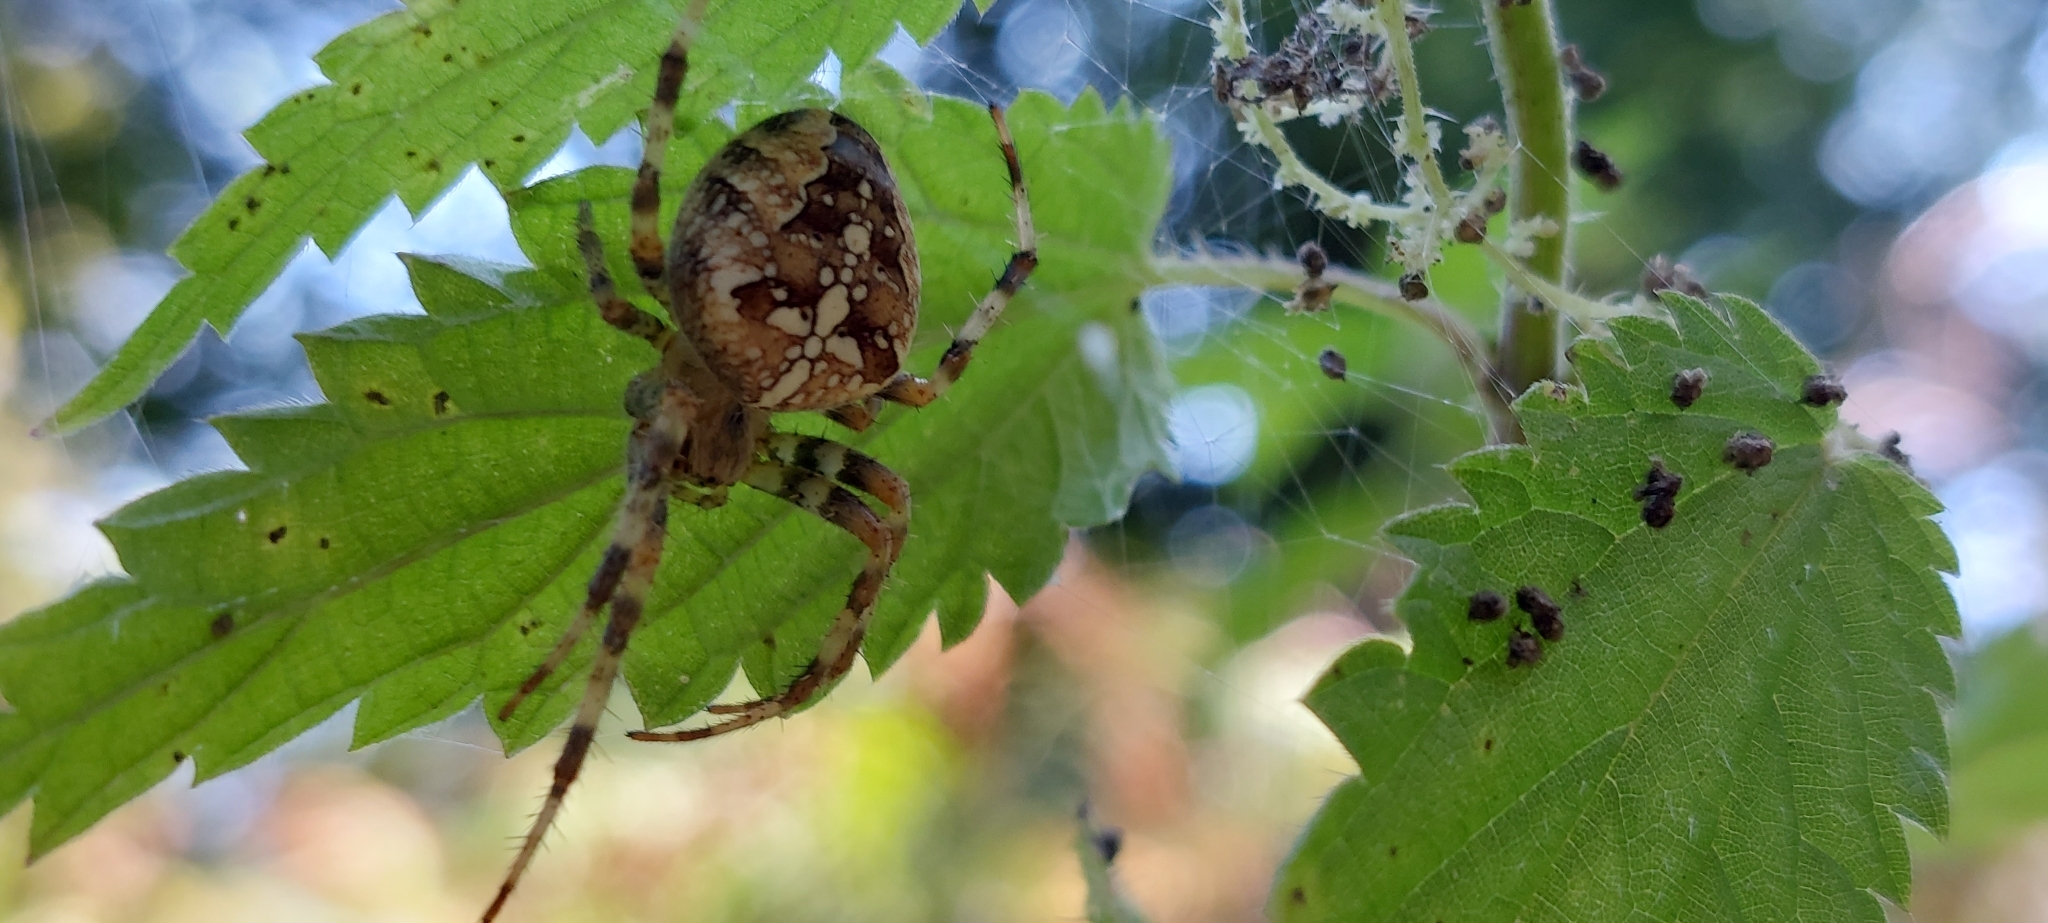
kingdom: Animalia
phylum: Arthropoda
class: Arachnida
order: Araneae
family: Araneidae
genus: Araneus
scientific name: Araneus diadematus
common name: Cross orbweaver
